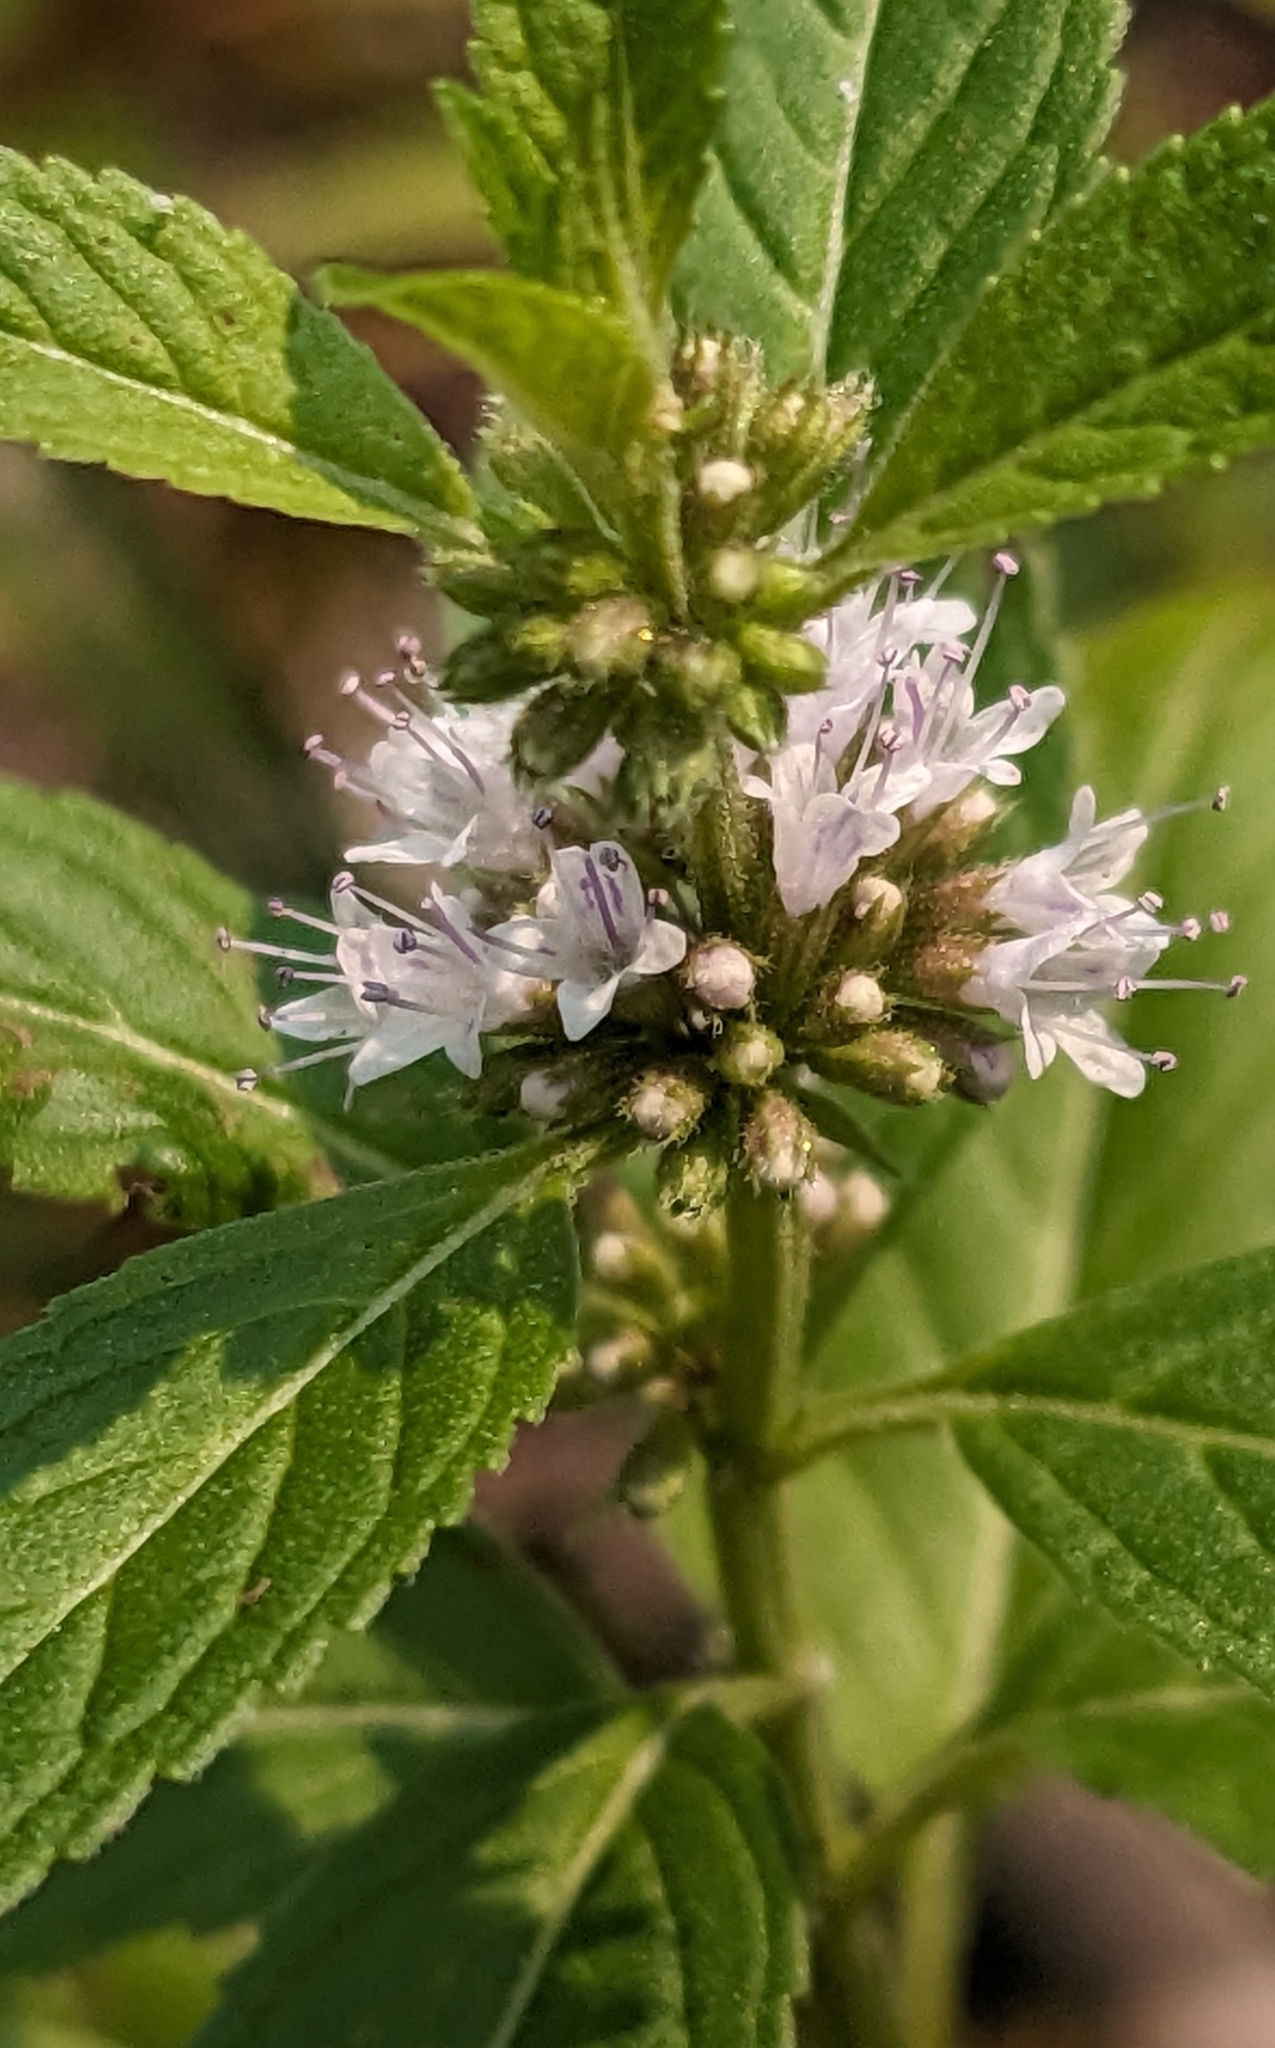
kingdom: Plantae
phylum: Tracheophyta
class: Magnoliopsida
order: Lamiales
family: Lamiaceae
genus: Mentha
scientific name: Mentha canadensis
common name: American corn mint
